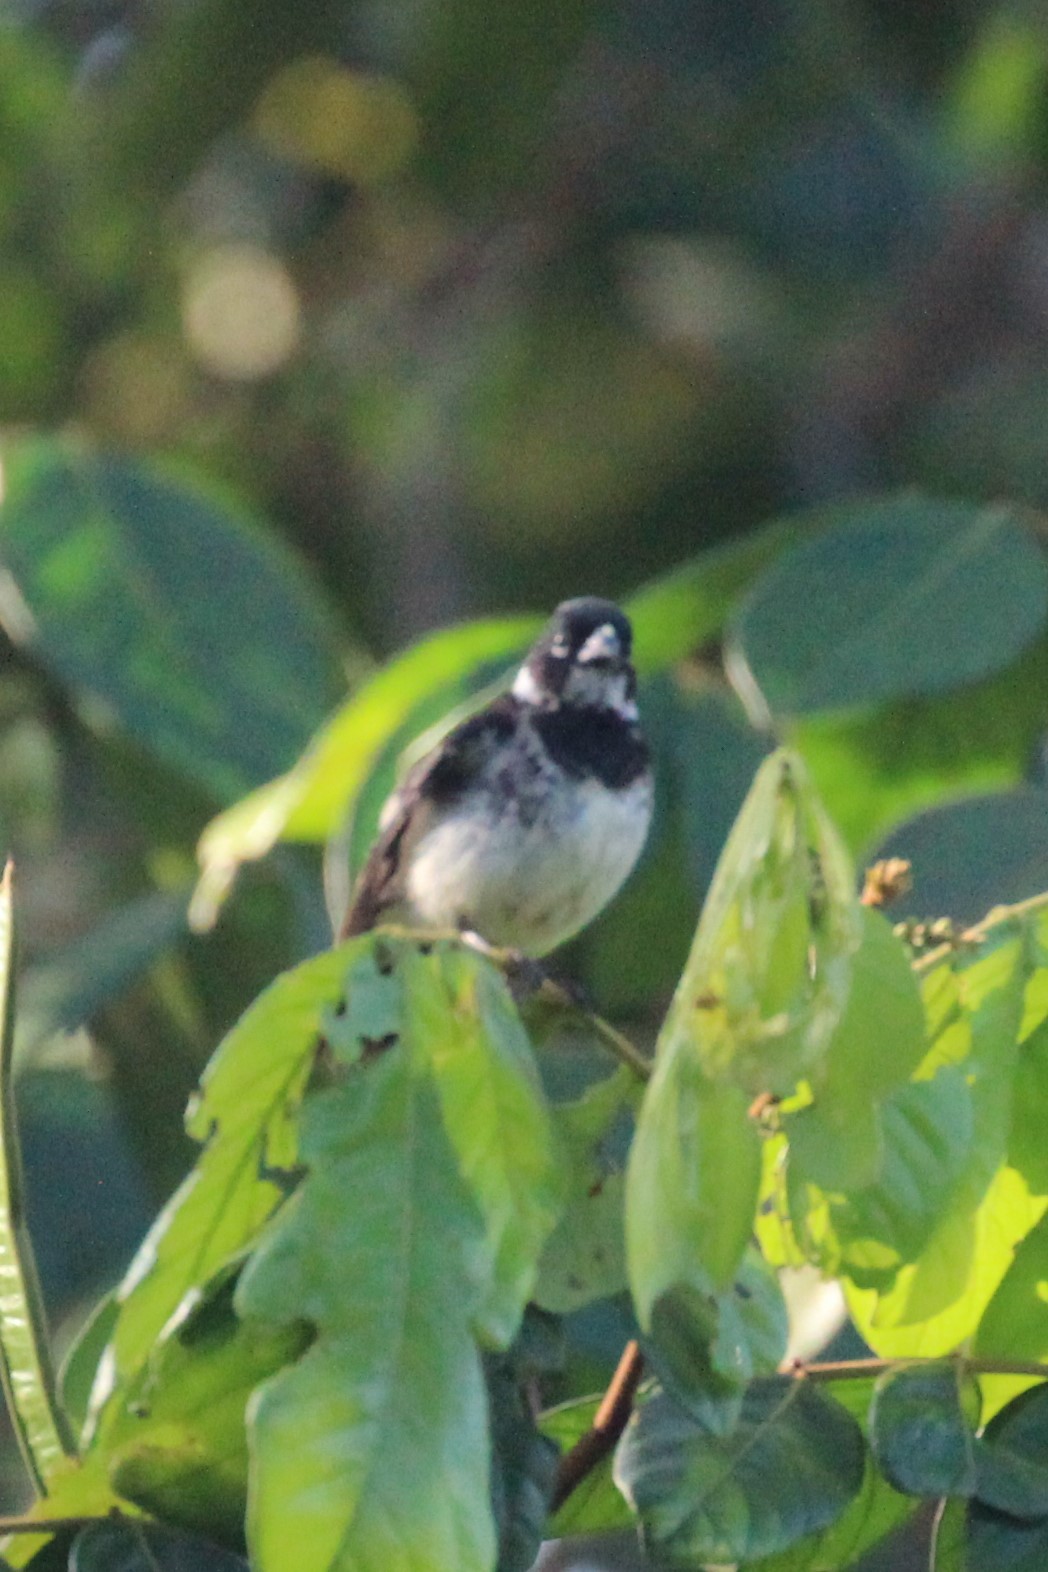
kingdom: Animalia
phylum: Chordata
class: Aves
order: Passeriformes
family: Thraupidae
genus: Sporophila
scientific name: Sporophila corvina
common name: Variable seedeater
